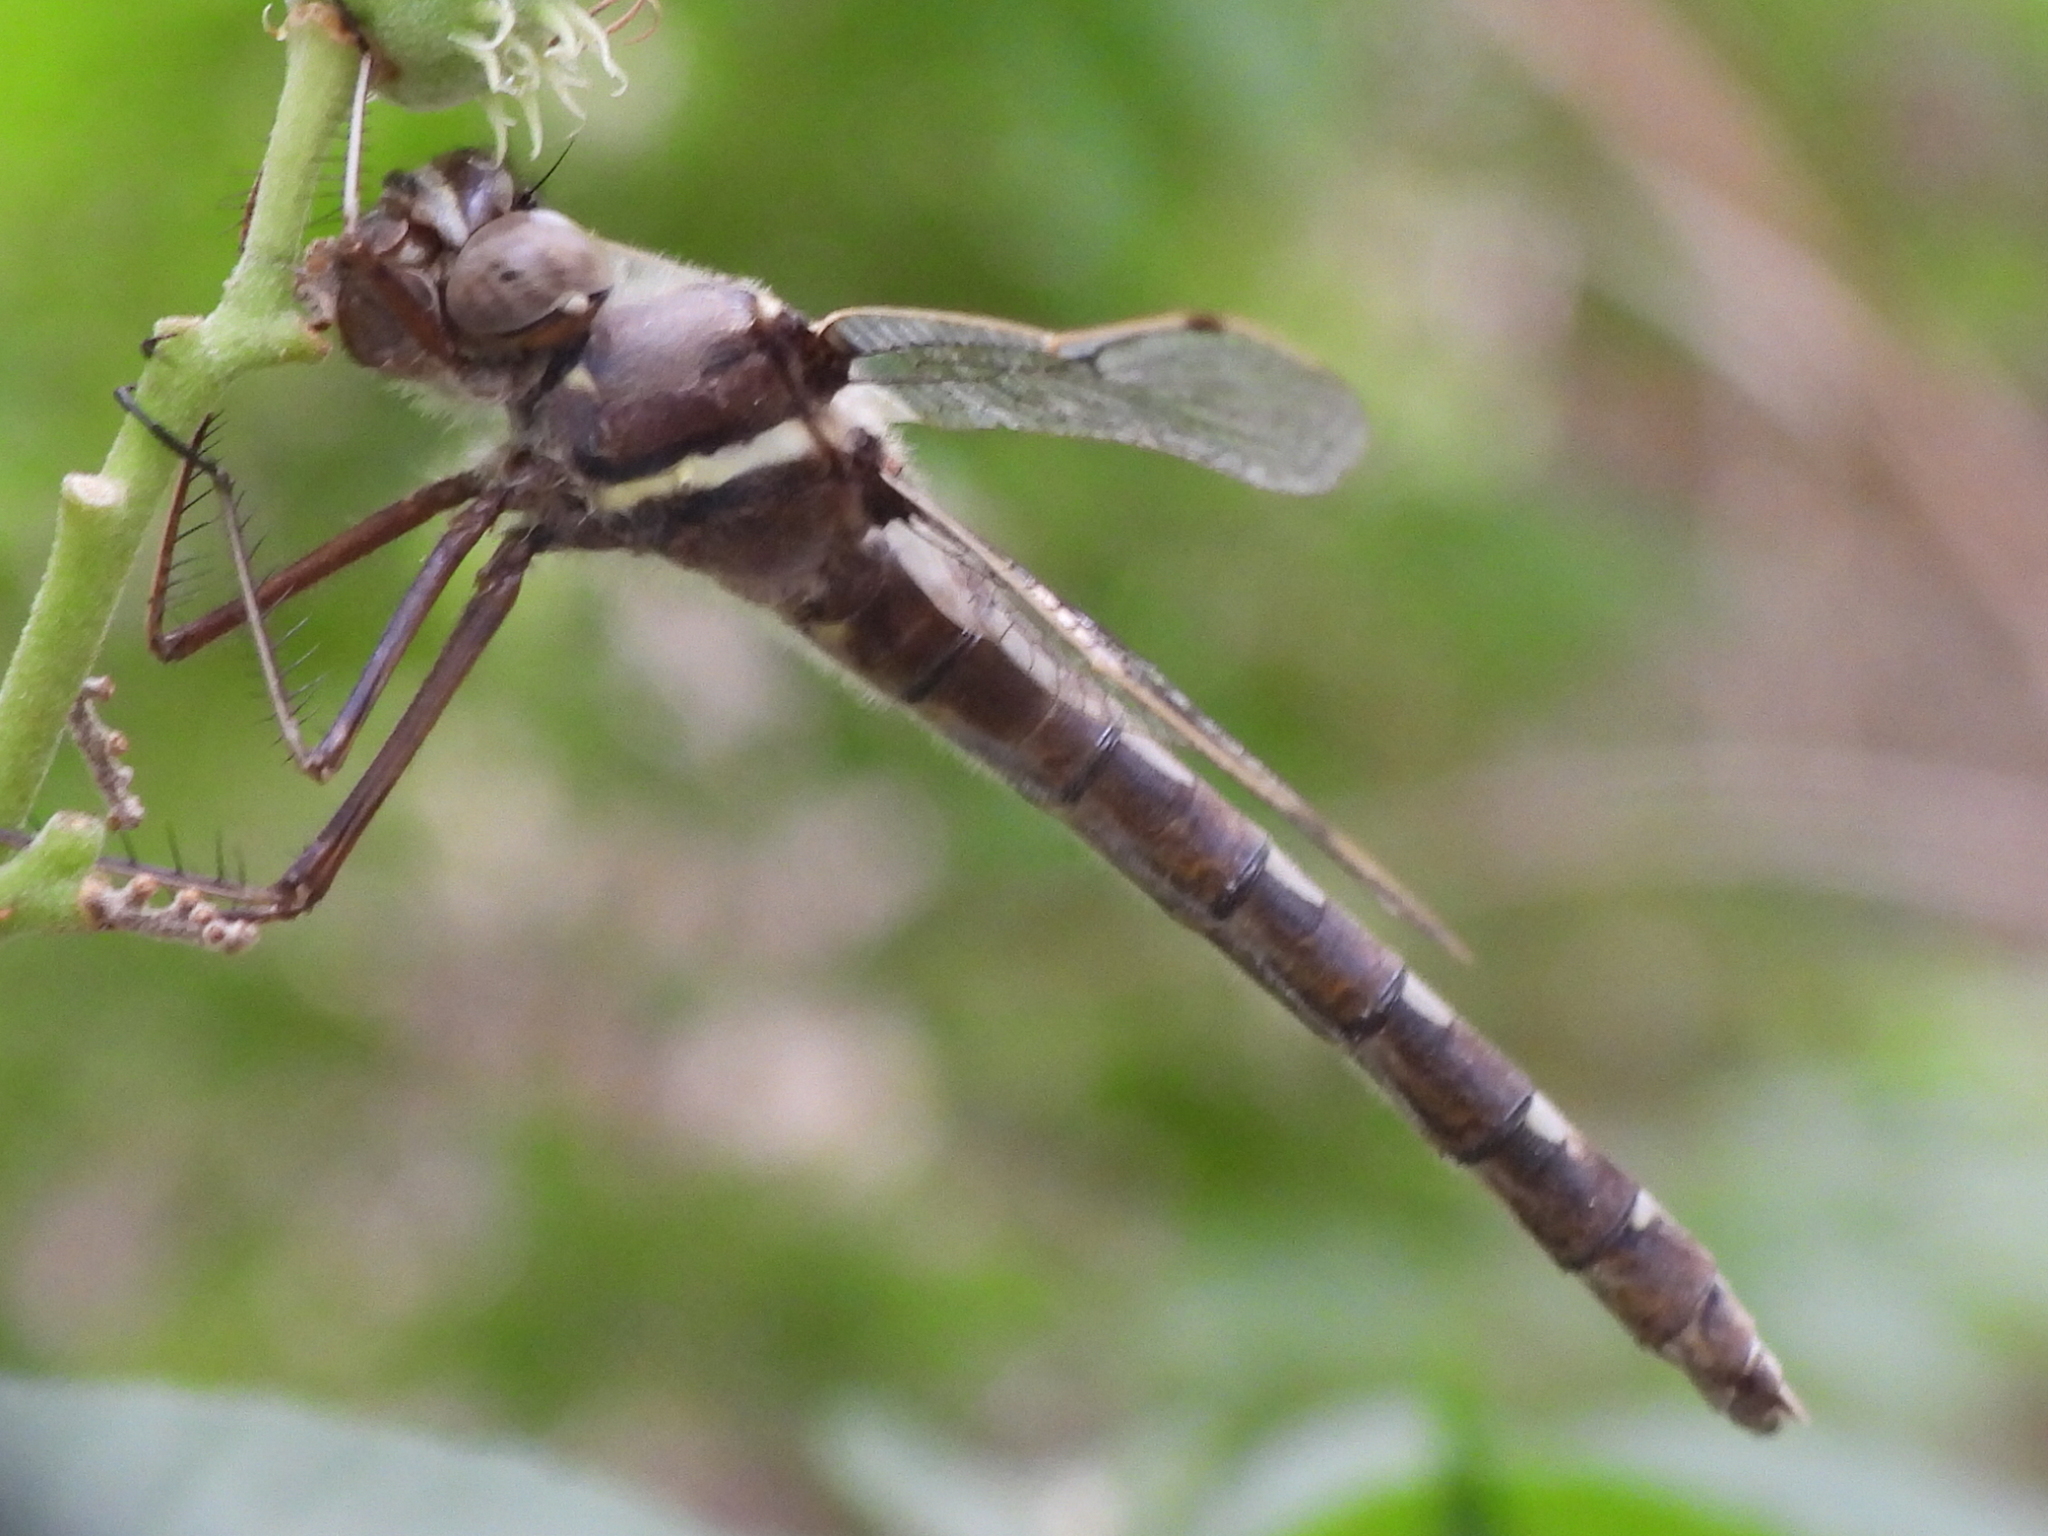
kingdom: Animalia
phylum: Arthropoda
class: Insecta
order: Odonata
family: Macromiidae
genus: Didymops
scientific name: Didymops transversa
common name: Stream cruiser
